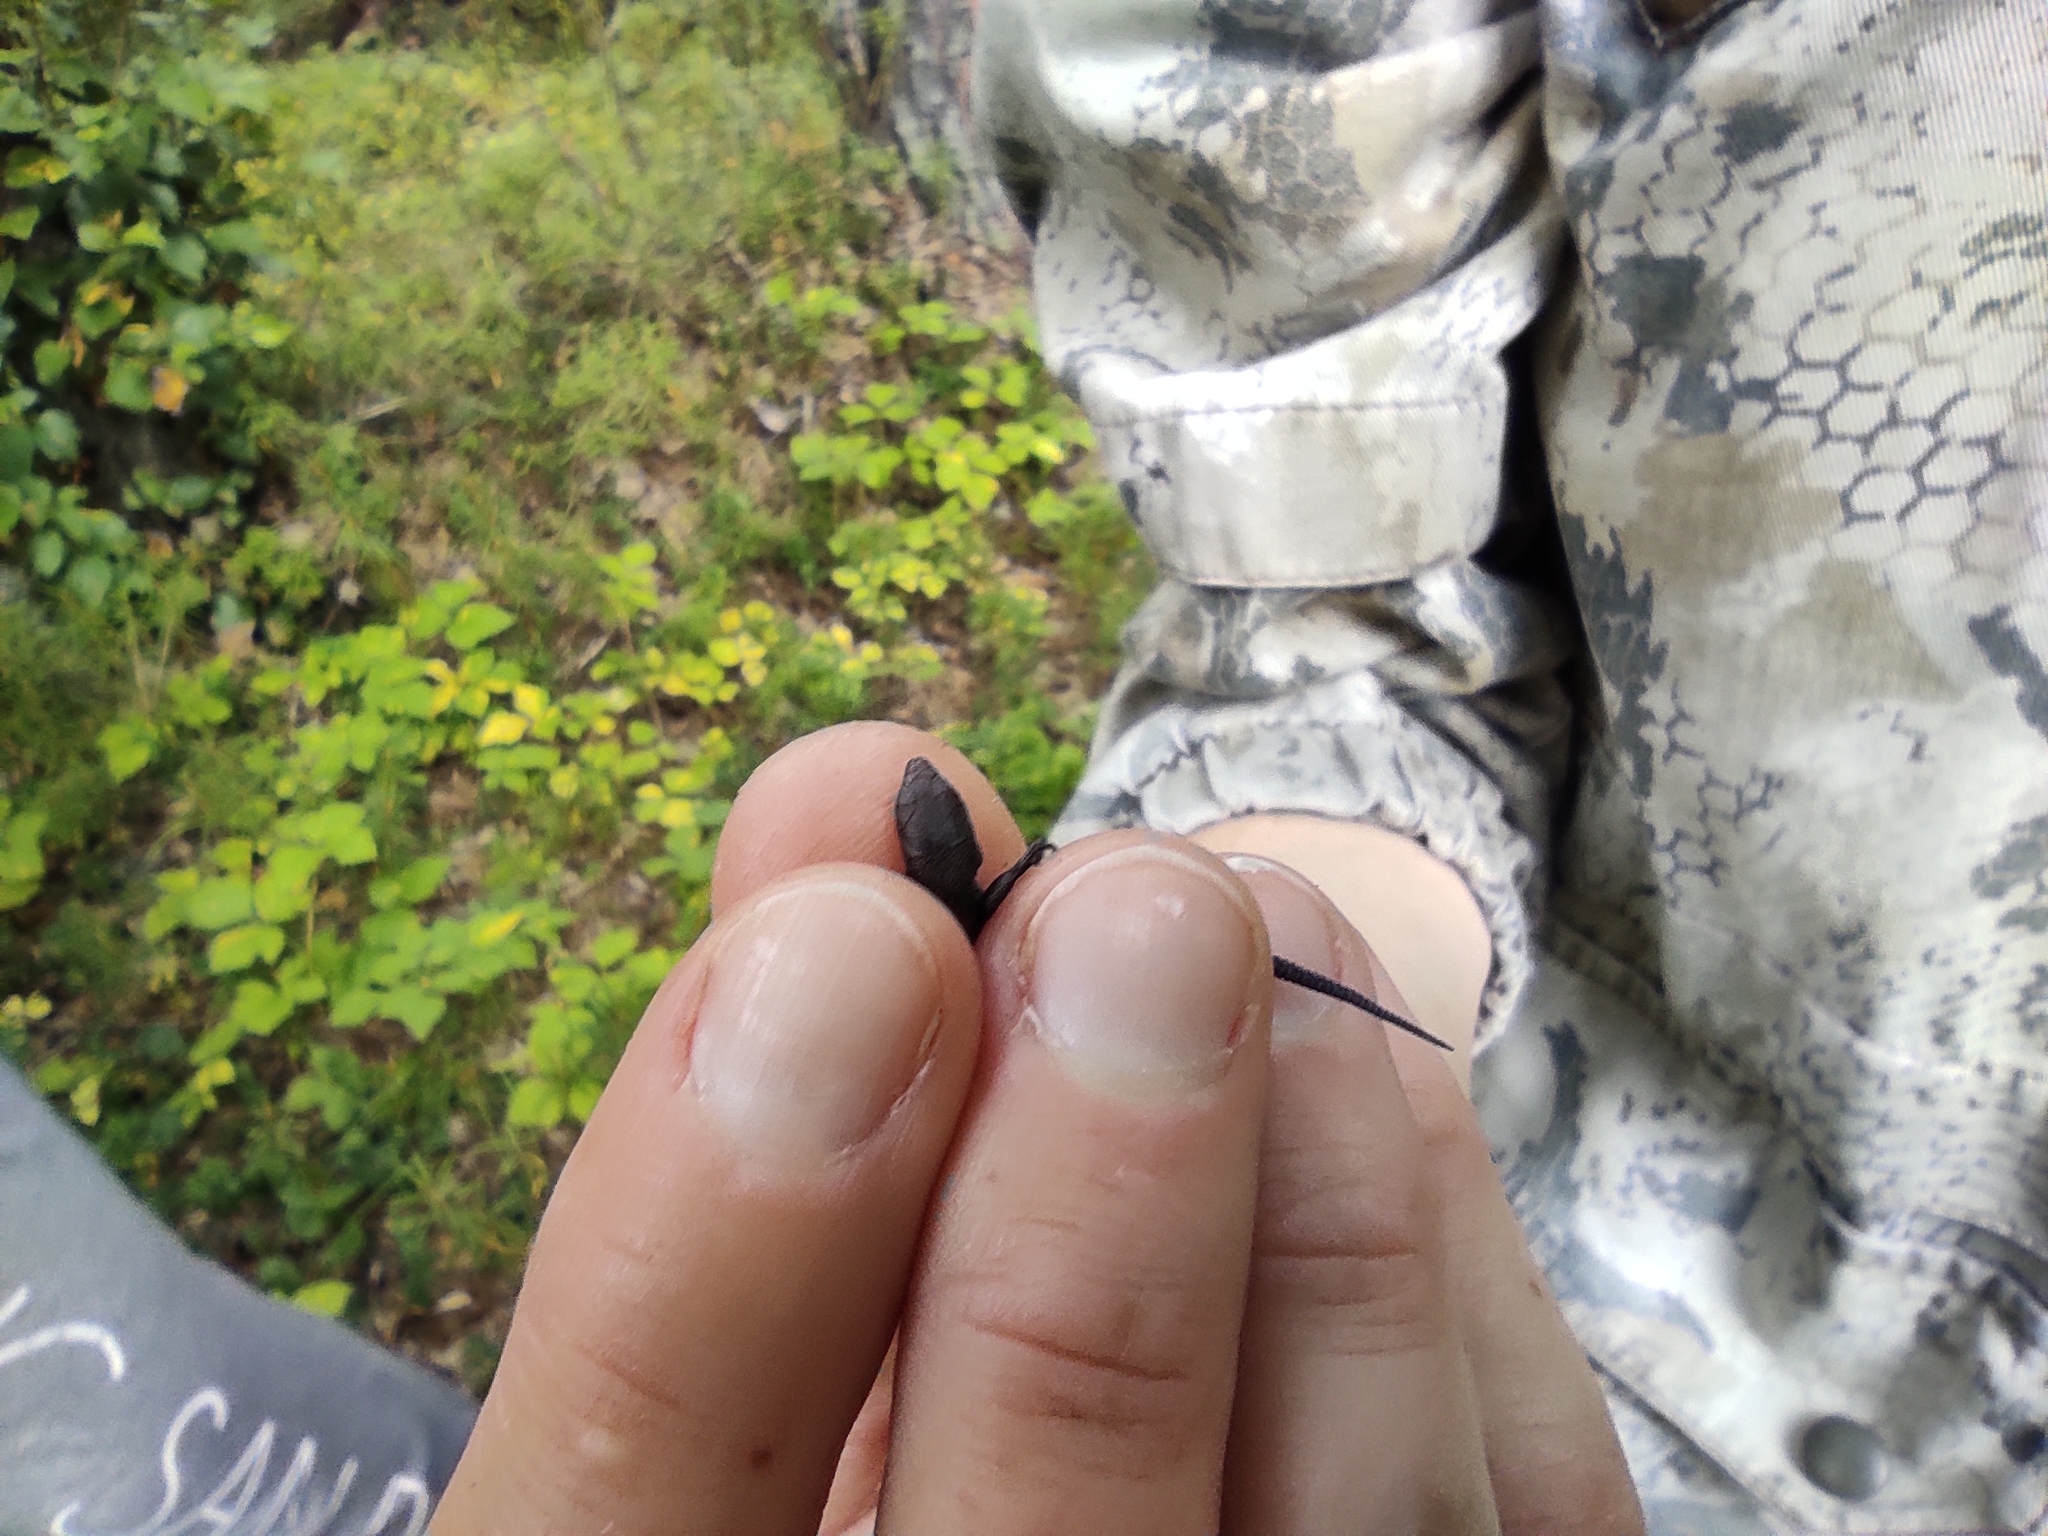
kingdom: Animalia
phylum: Chordata
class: Squamata
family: Lacertidae
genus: Zootoca
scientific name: Zootoca vivipara
